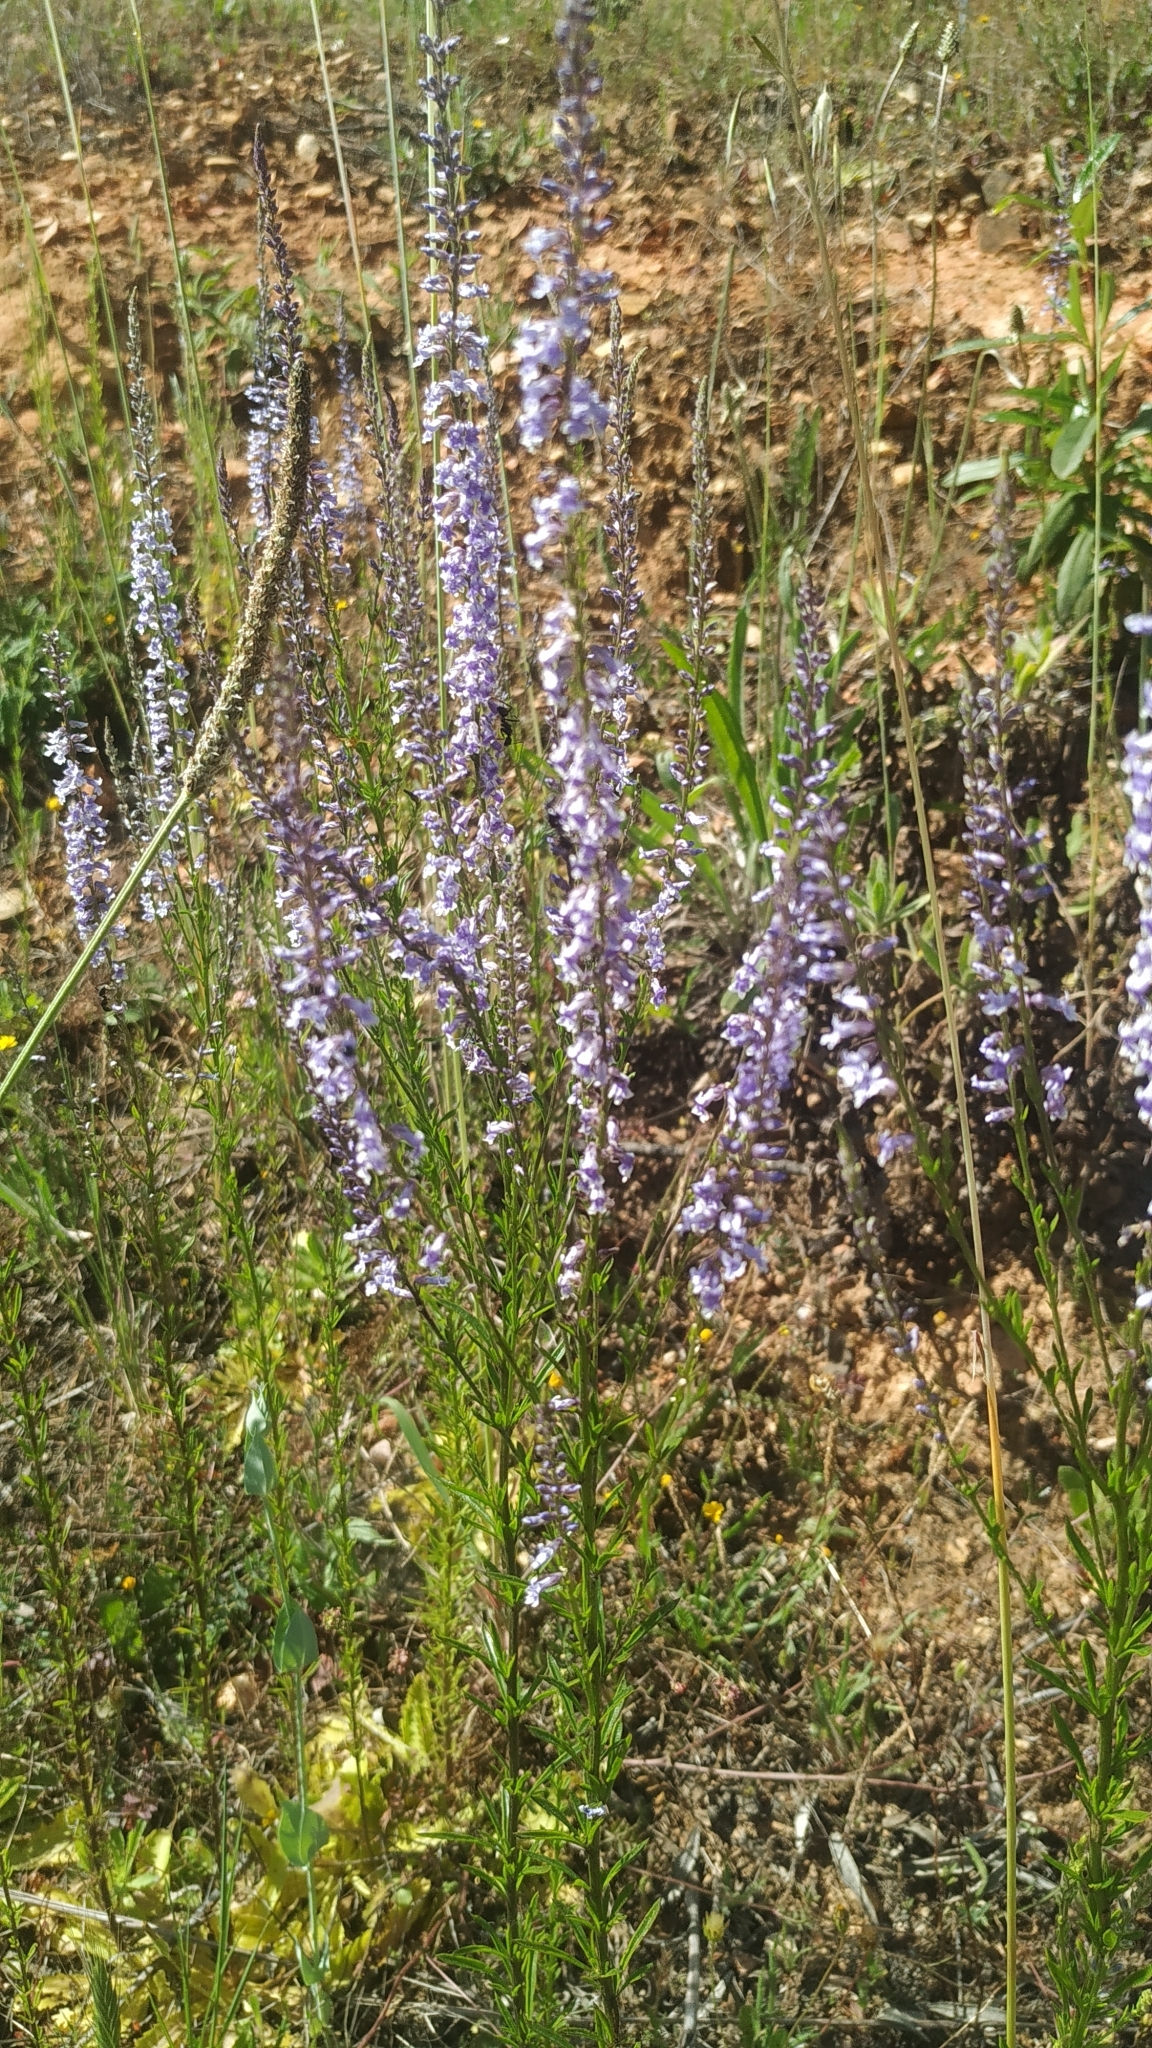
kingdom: Plantae
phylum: Tracheophyta
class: Magnoliopsida
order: Lamiales
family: Plantaginaceae
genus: Anarrhinum
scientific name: Anarrhinum bellidifolium
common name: Daisy-leaved toadflax
